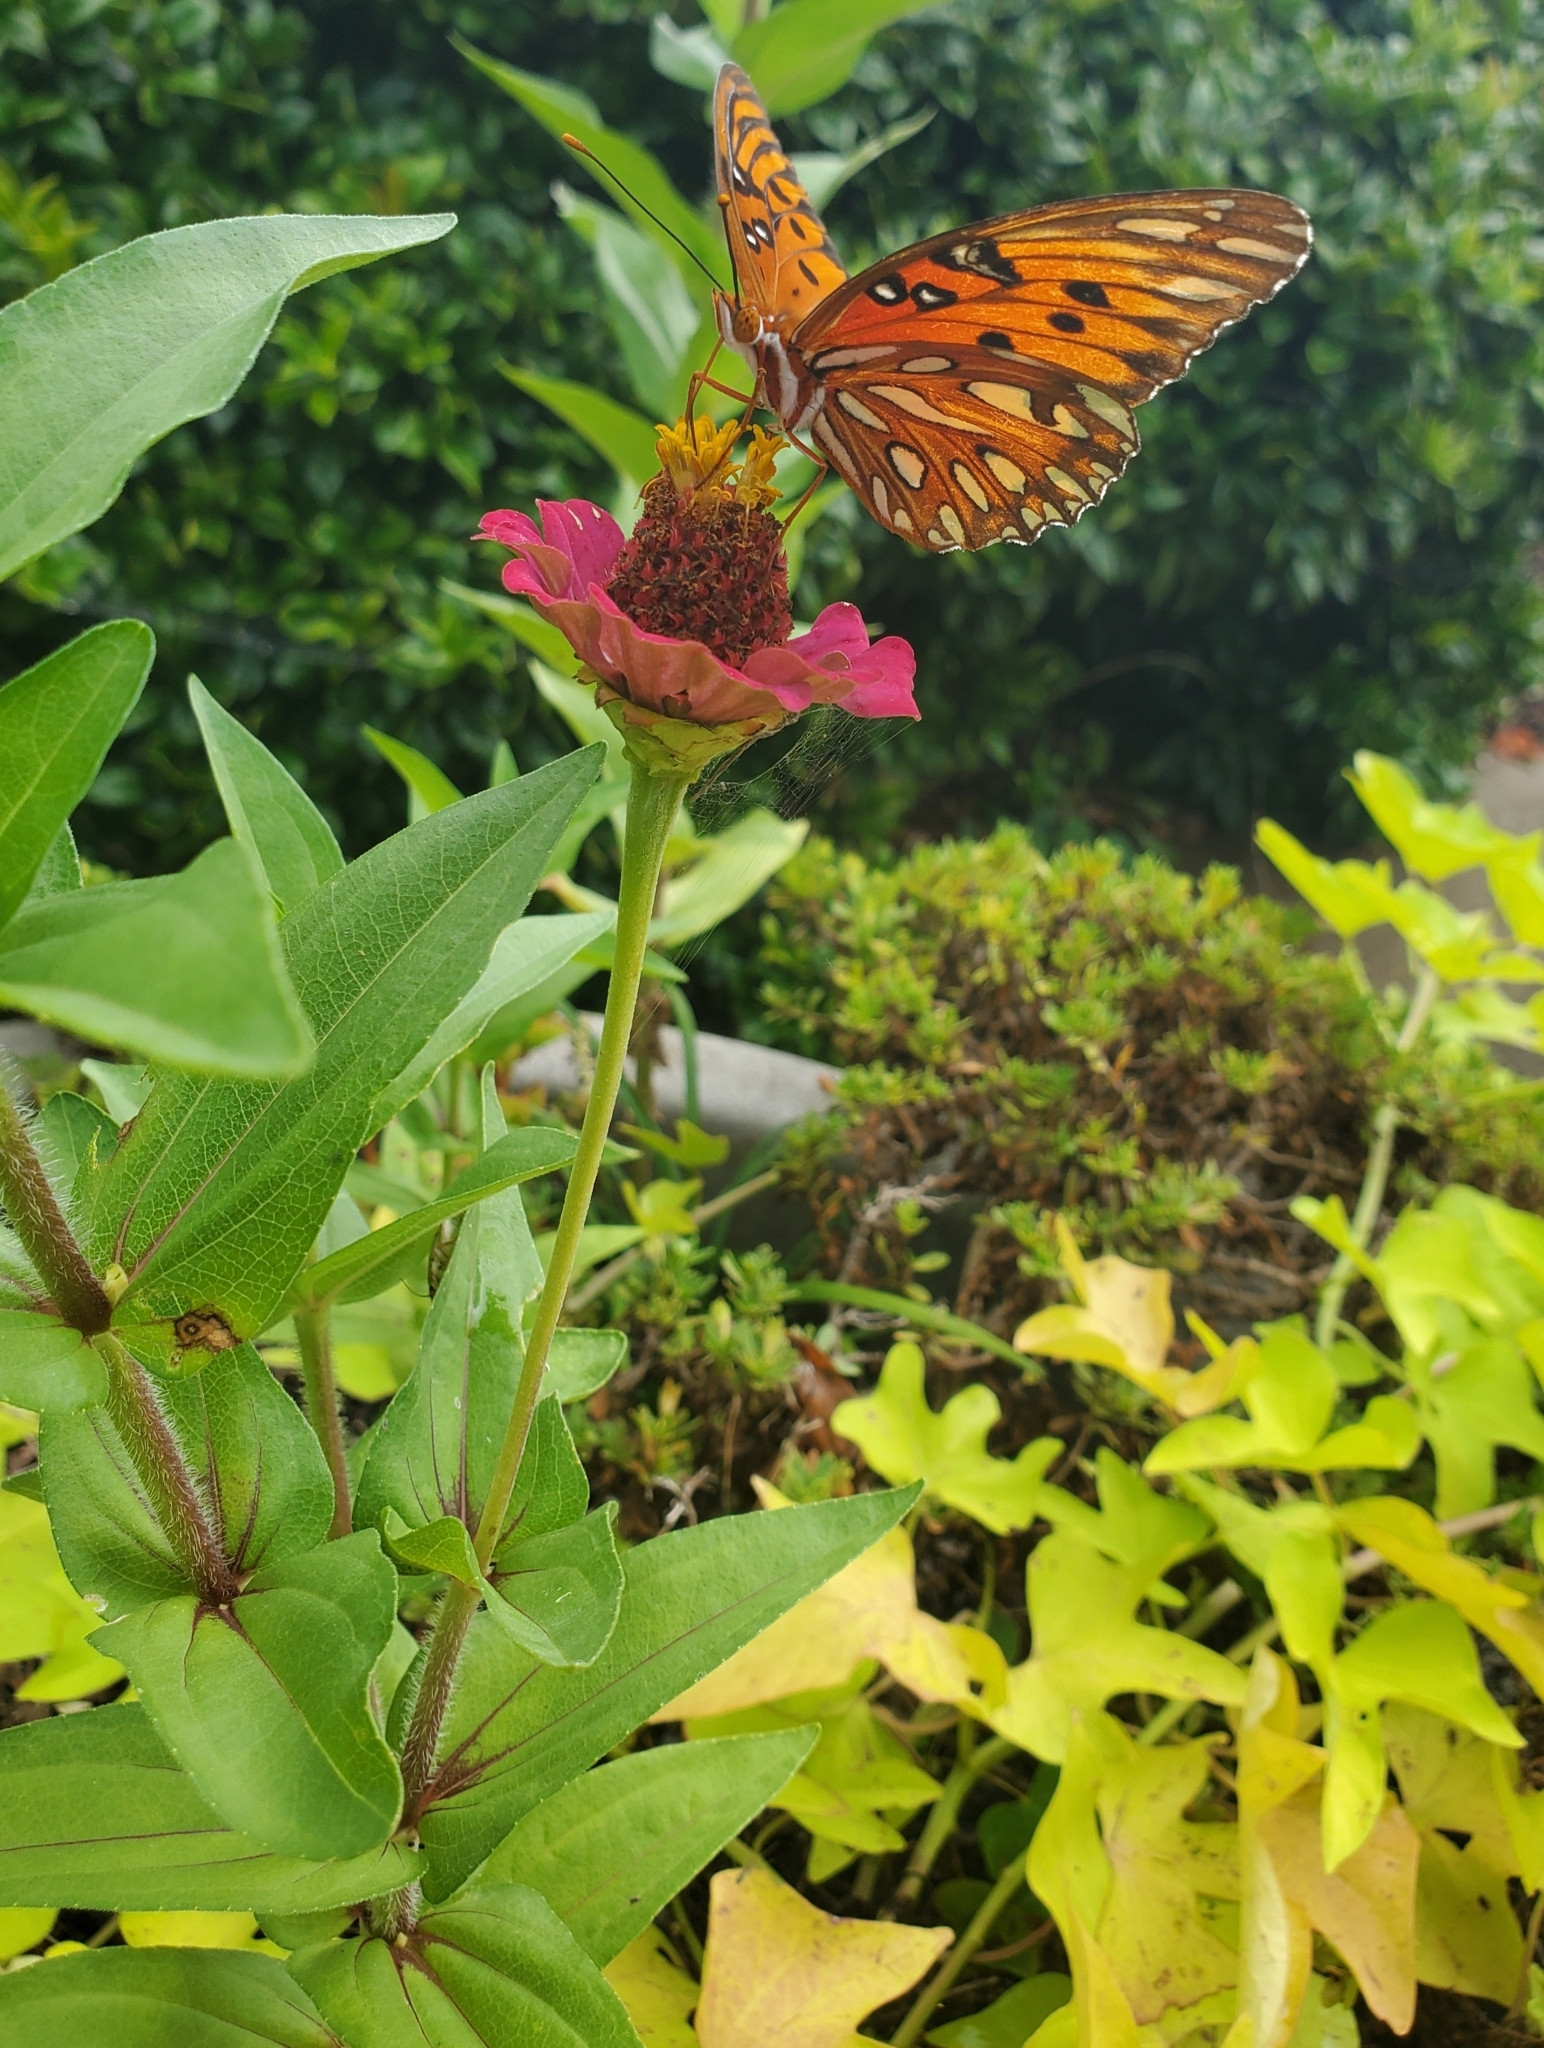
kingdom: Animalia
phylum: Arthropoda
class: Insecta
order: Lepidoptera
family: Nymphalidae
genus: Dione
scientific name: Dione vanillae
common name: Gulf fritillary
